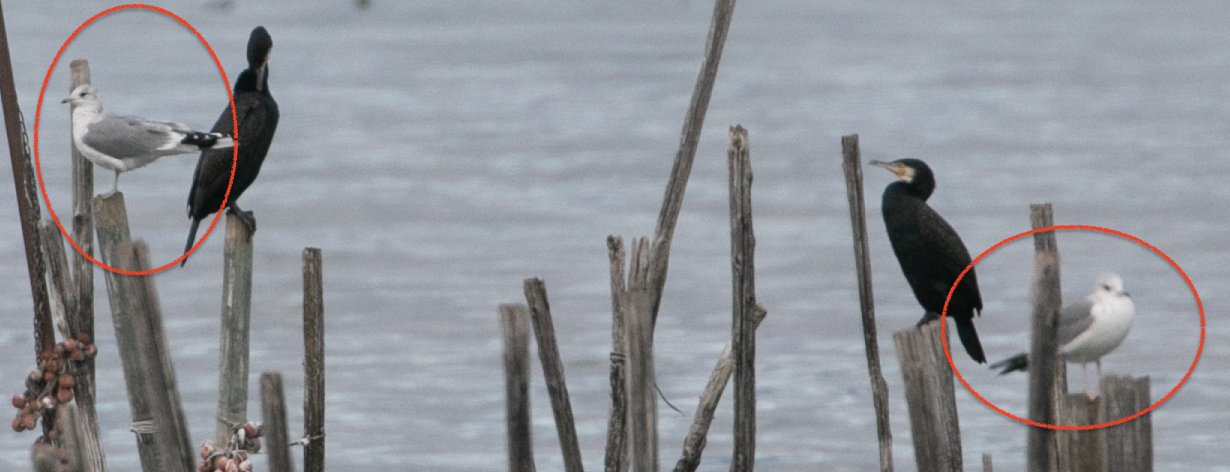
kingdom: Animalia
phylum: Chordata
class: Aves
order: Charadriiformes
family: Laridae
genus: Larus
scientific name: Larus canus
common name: Mew gull
